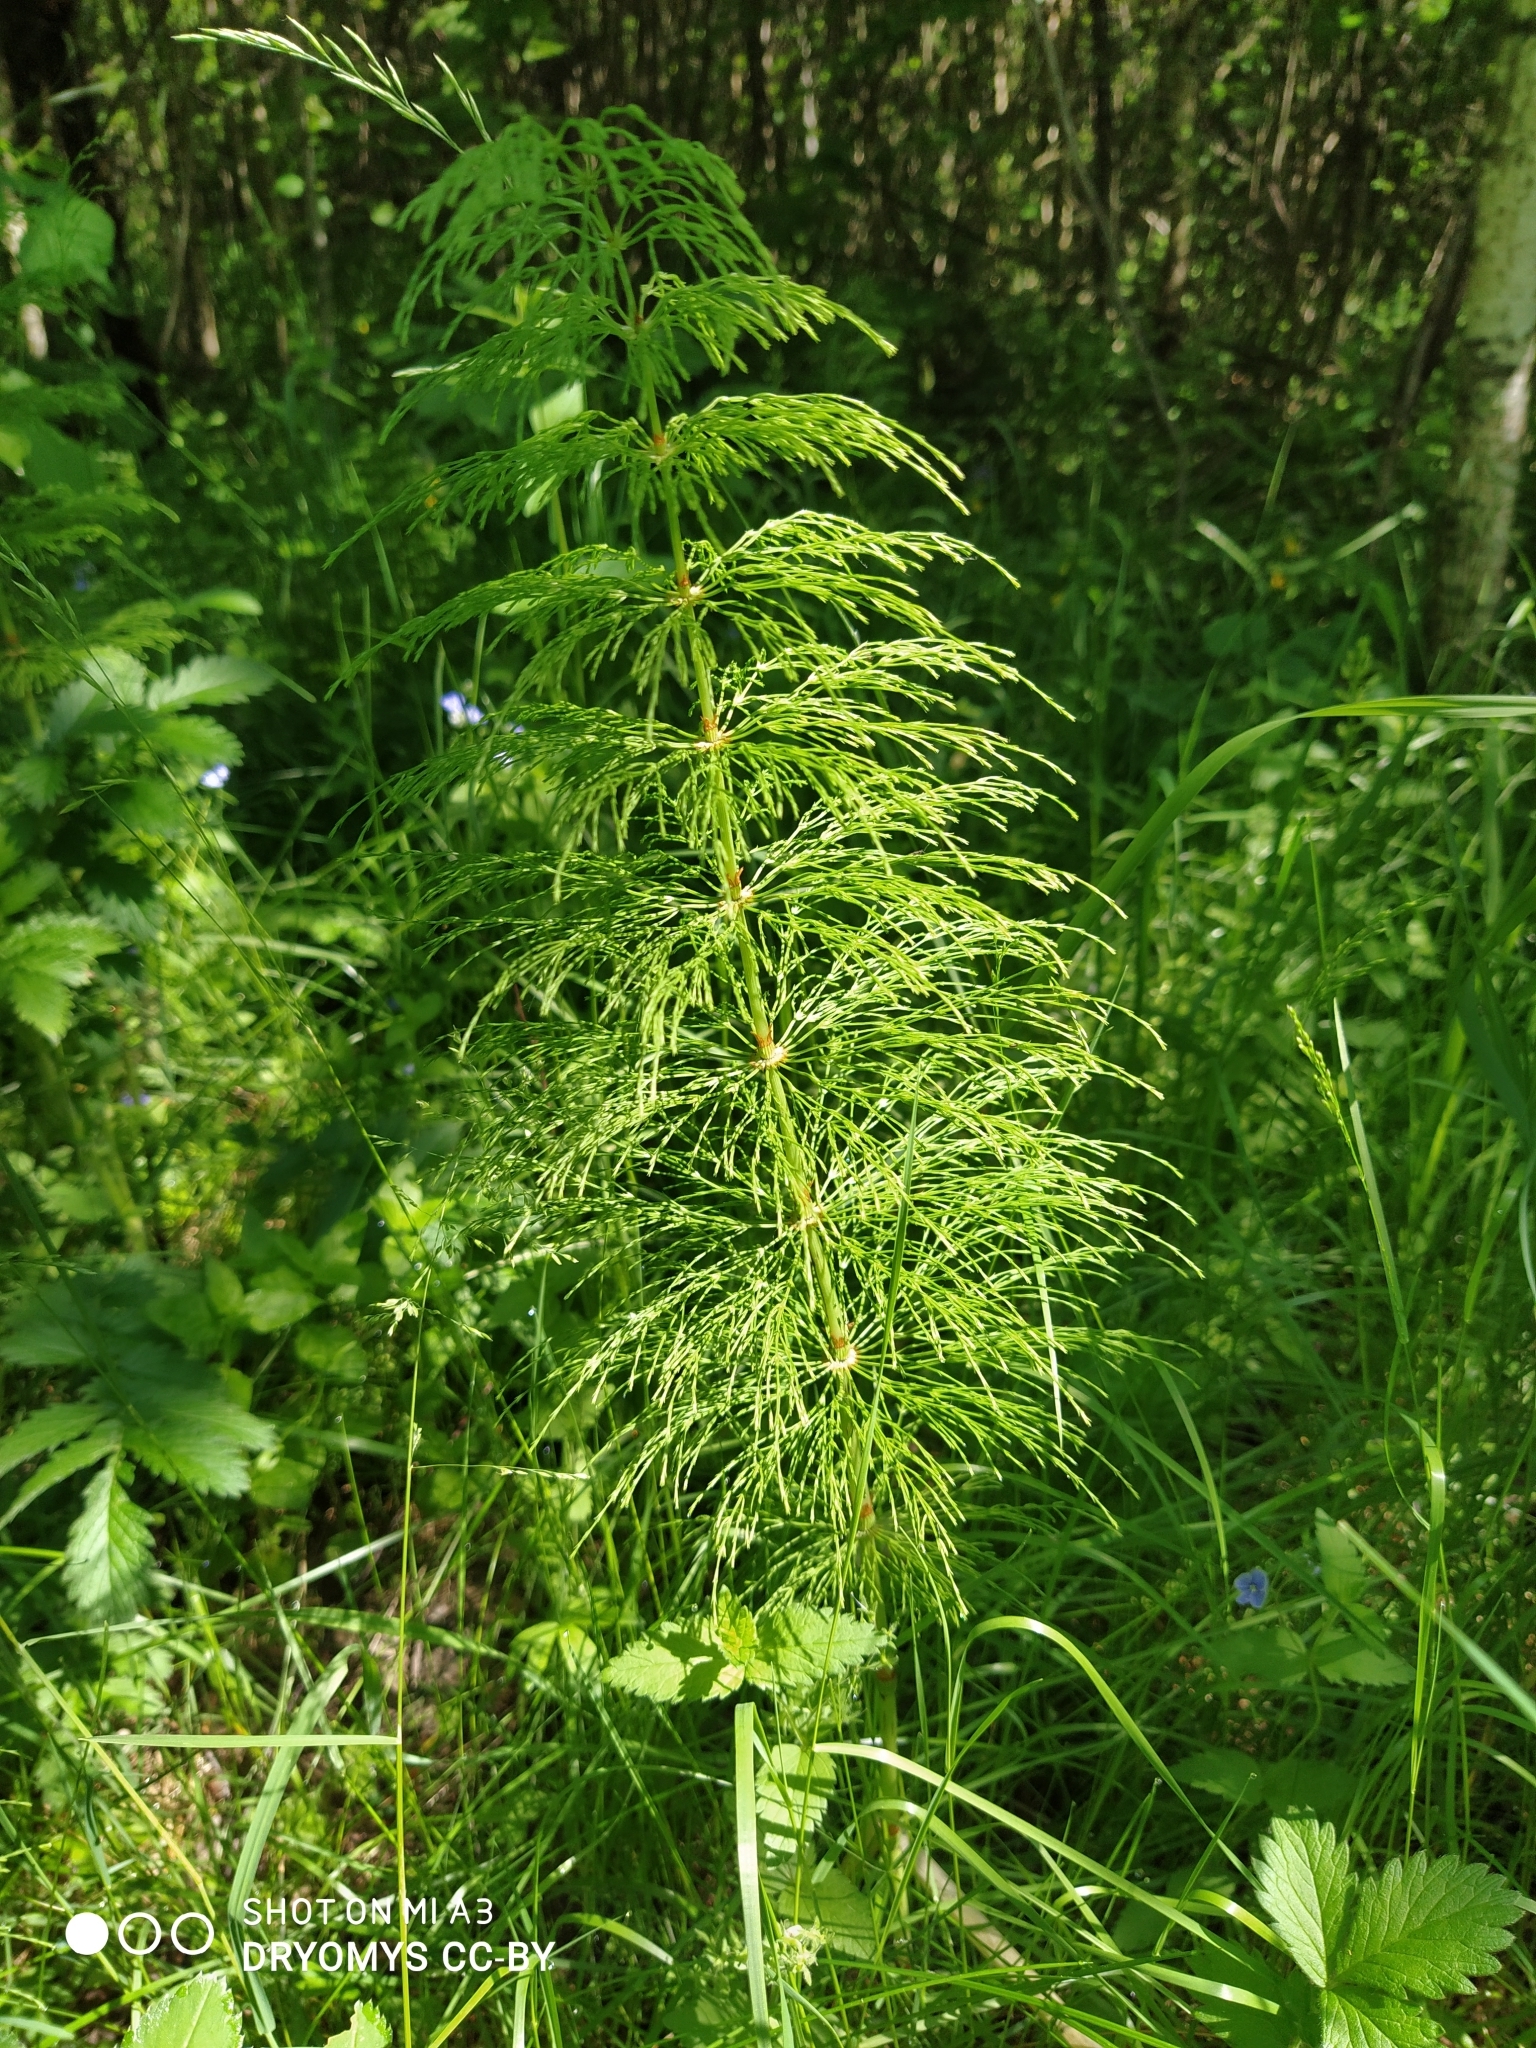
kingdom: Plantae
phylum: Tracheophyta
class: Polypodiopsida
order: Equisetales
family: Equisetaceae
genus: Equisetum
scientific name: Equisetum sylvaticum
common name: Wood horsetail
